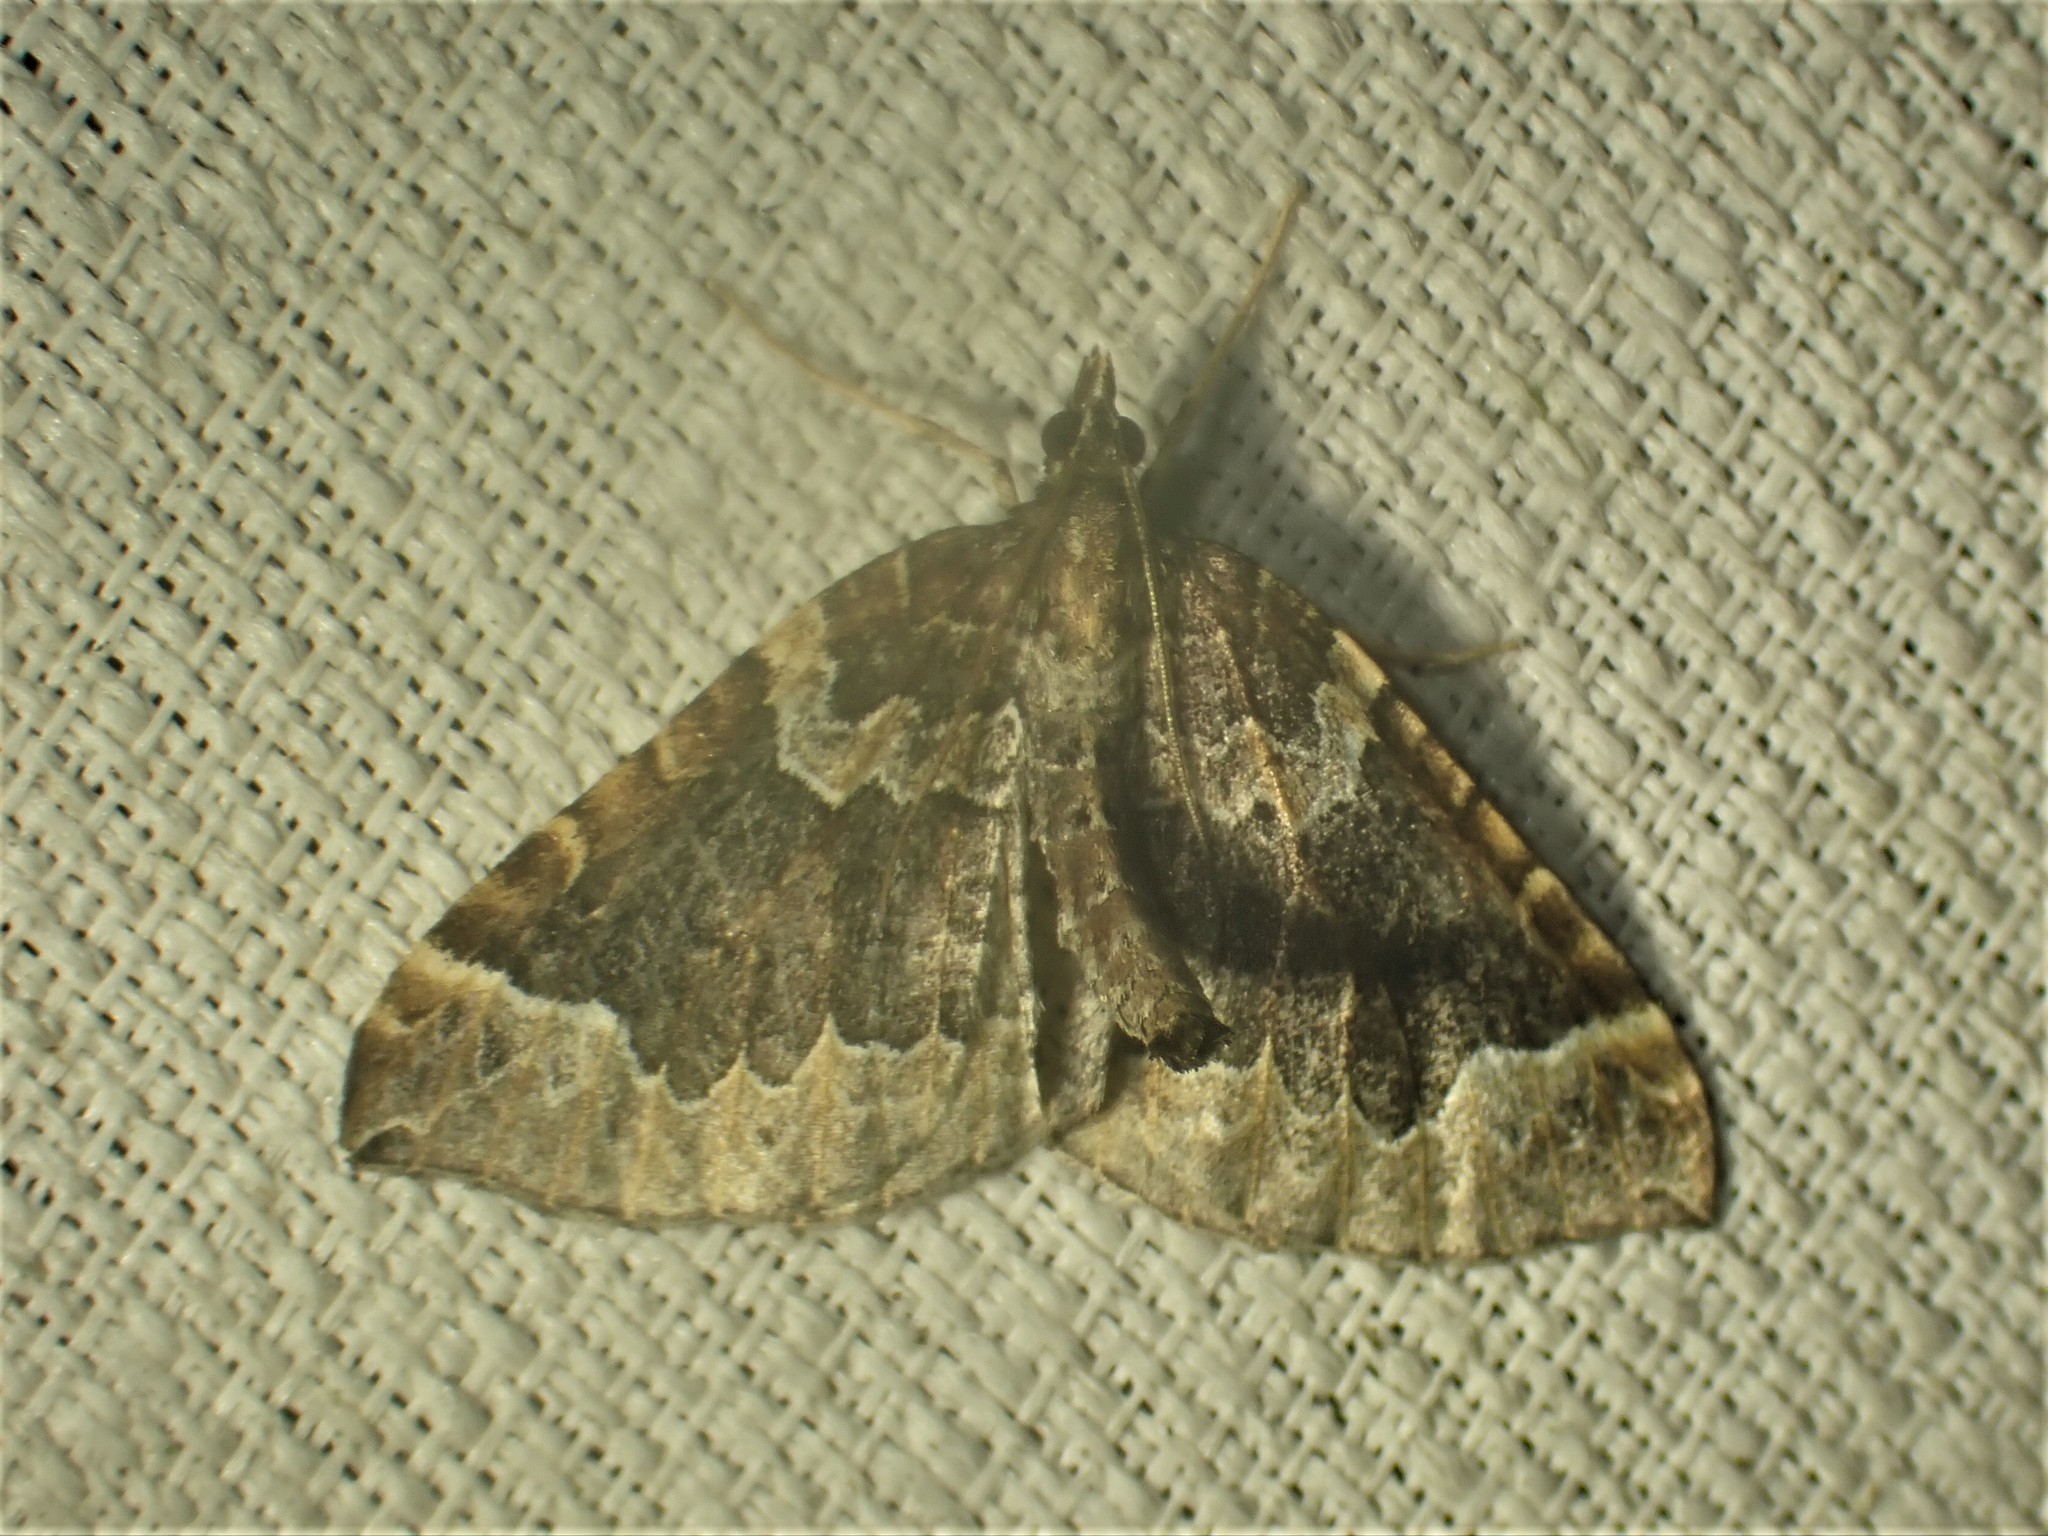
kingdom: Animalia
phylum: Arthropoda
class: Insecta
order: Lepidoptera
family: Geometridae
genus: Eulithis
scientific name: Eulithis flavibrunneata
